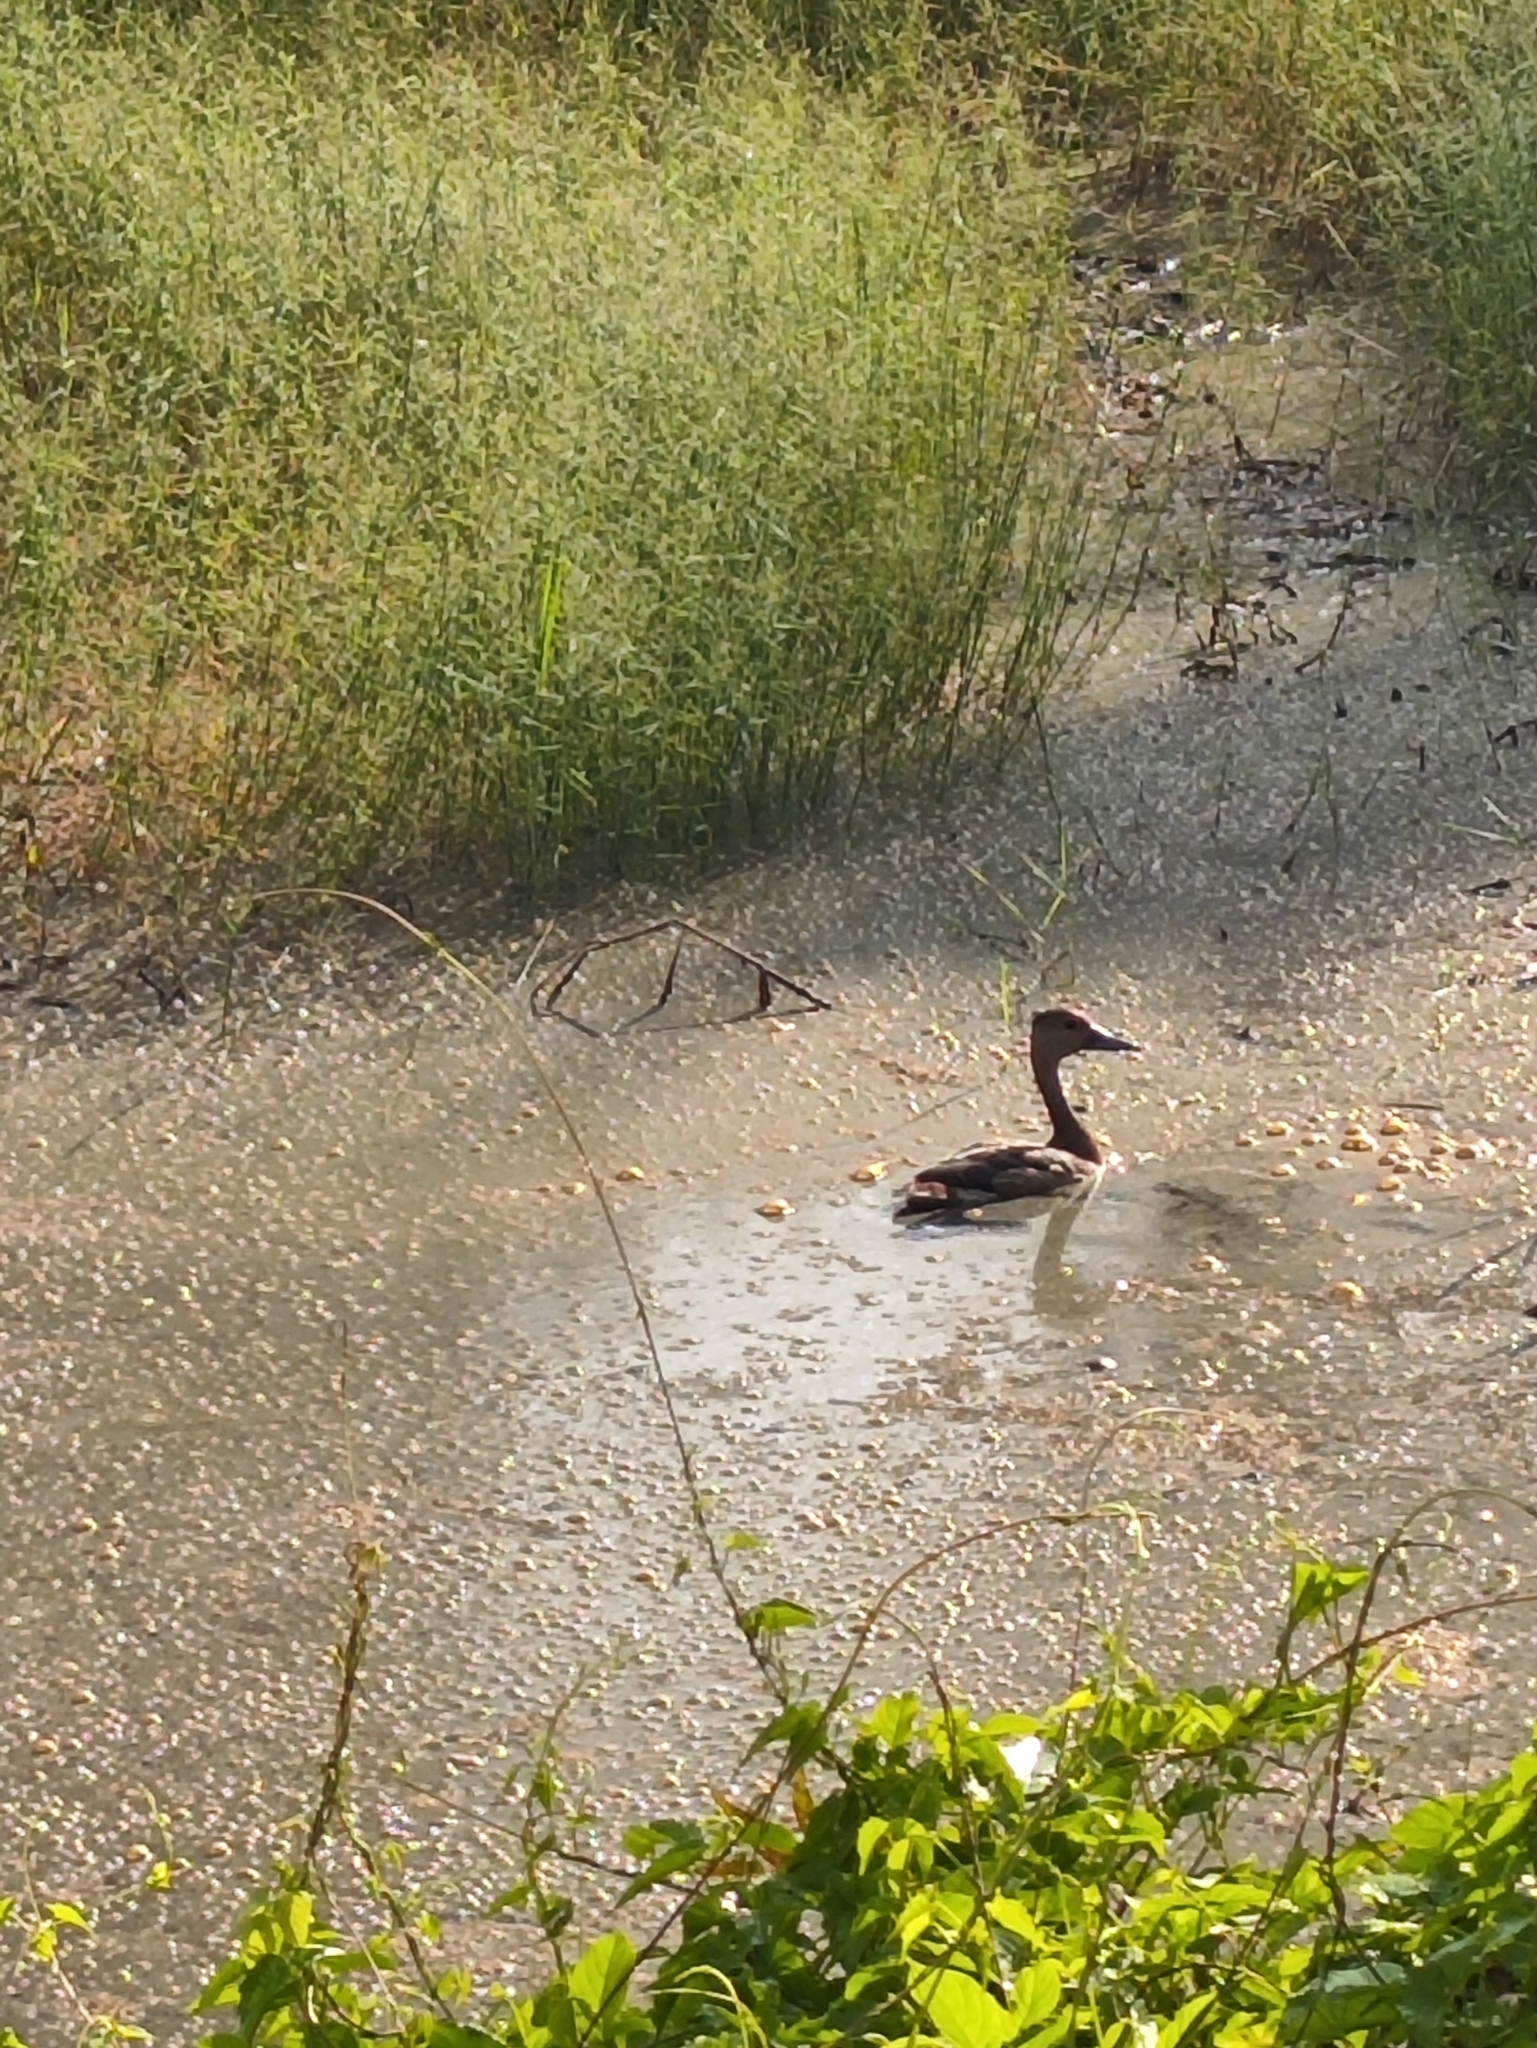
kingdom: Animalia
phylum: Chordata
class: Aves
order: Anseriformes
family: Anatidae
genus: Dendrocygna
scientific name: Dendrocygna javanica
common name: Lesser whistling-duck
